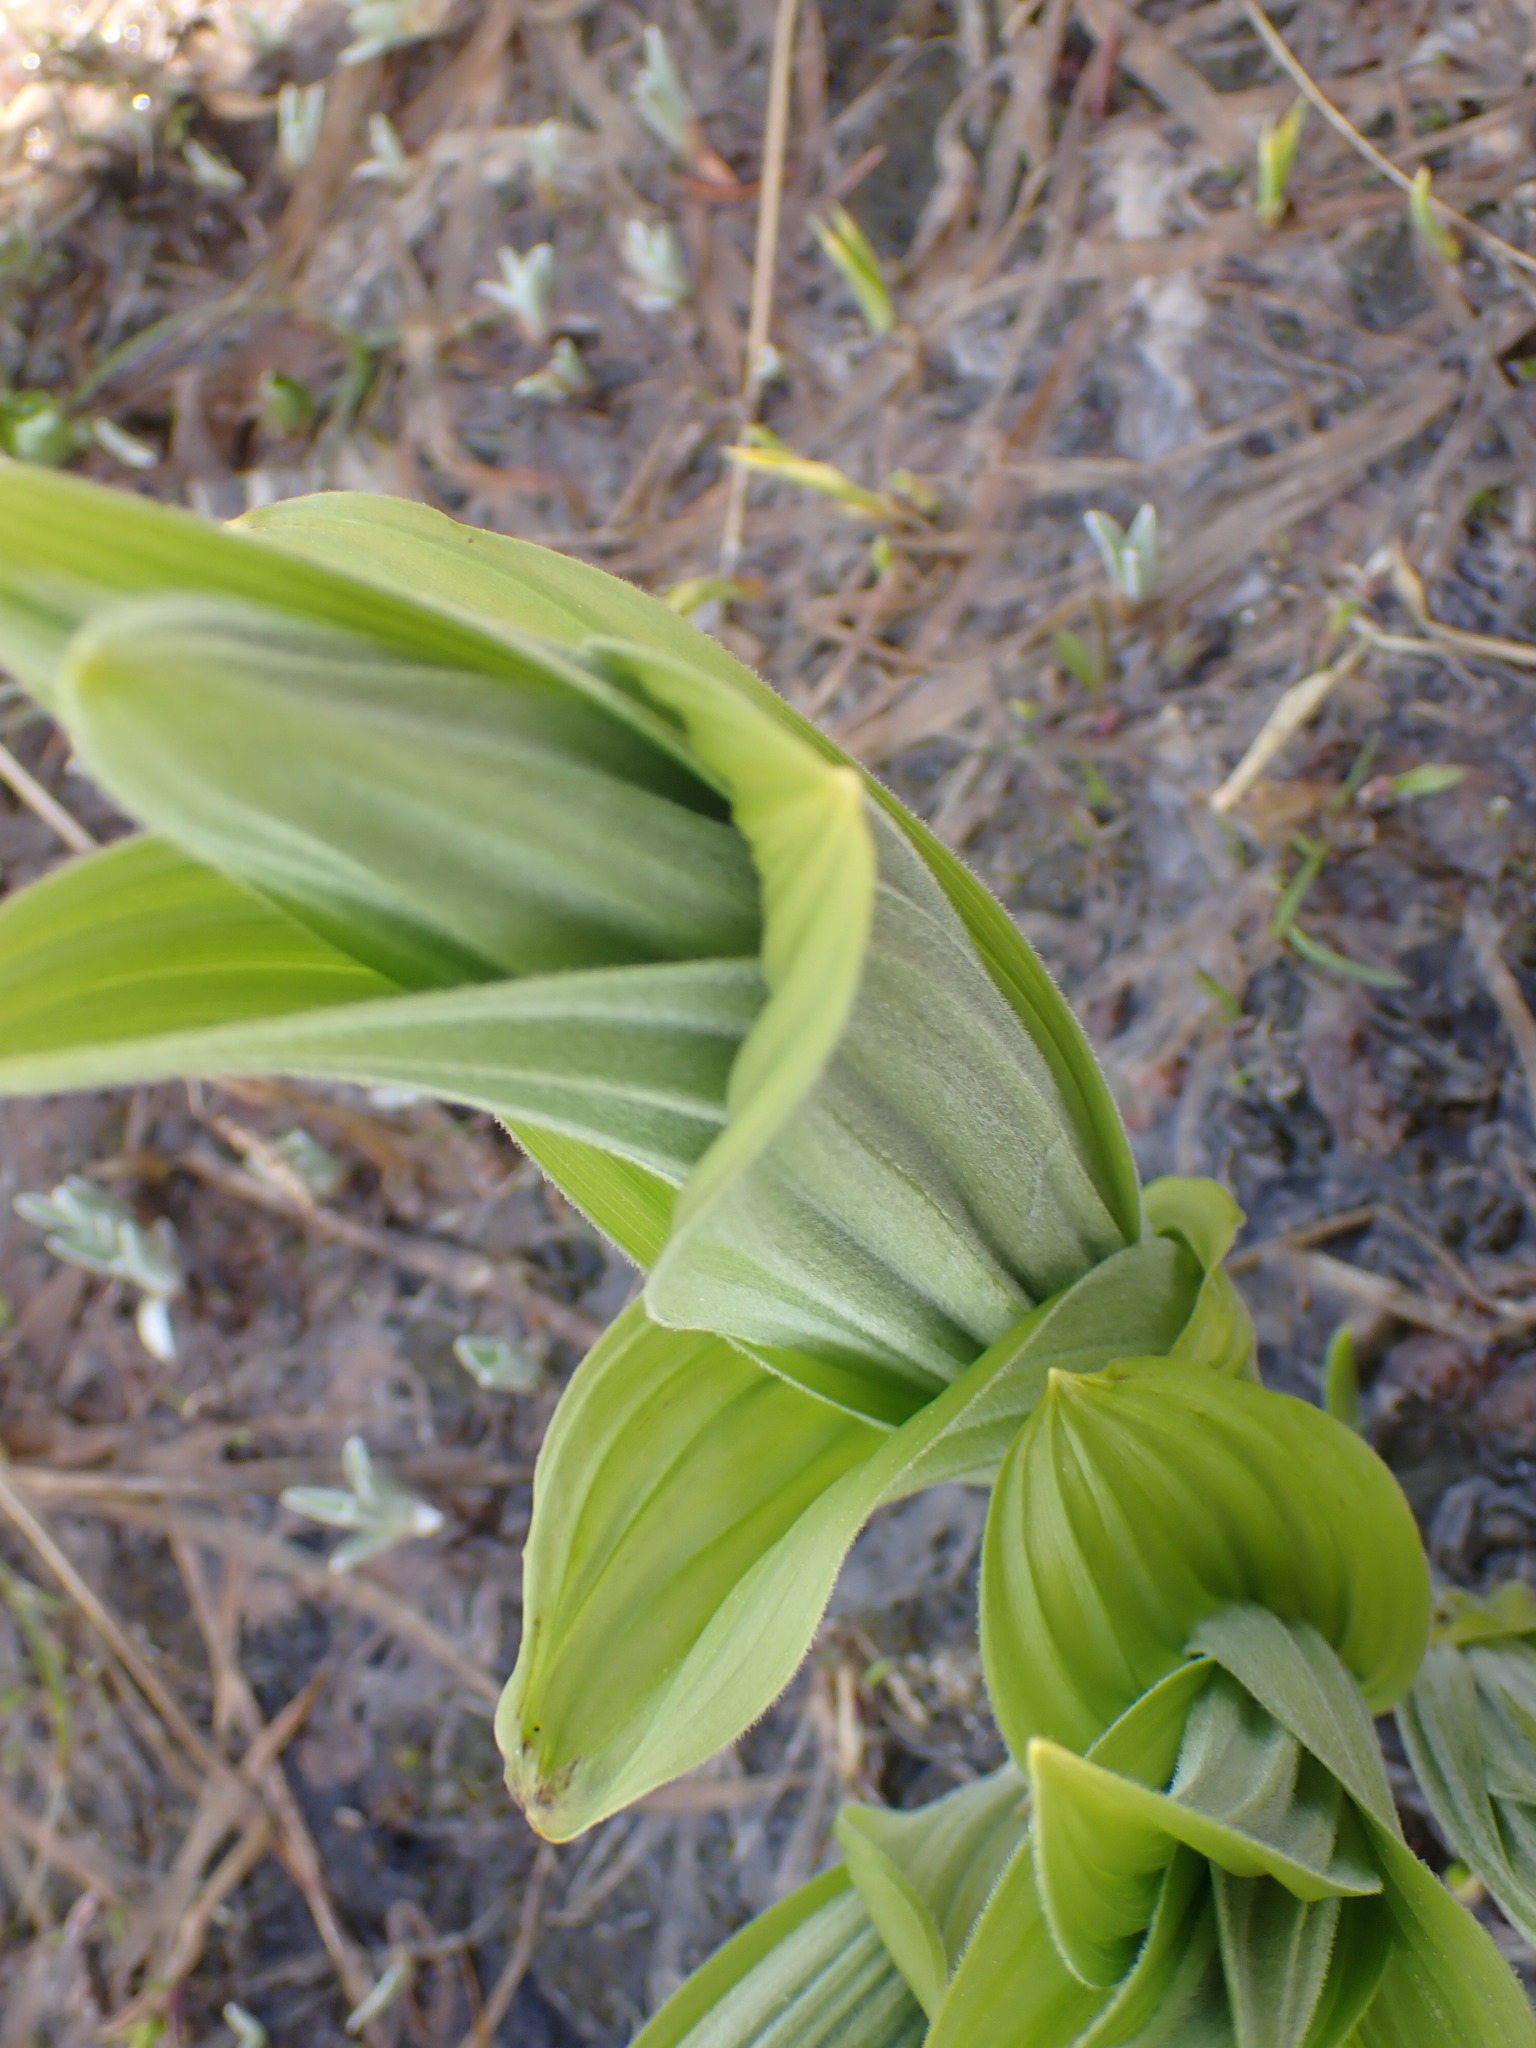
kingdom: Plantae
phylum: Tracheophyta
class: Liliopsida
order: Liliales
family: Melanthiaceae
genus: Veratrum
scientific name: Veratrum viride
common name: American false hellebore
